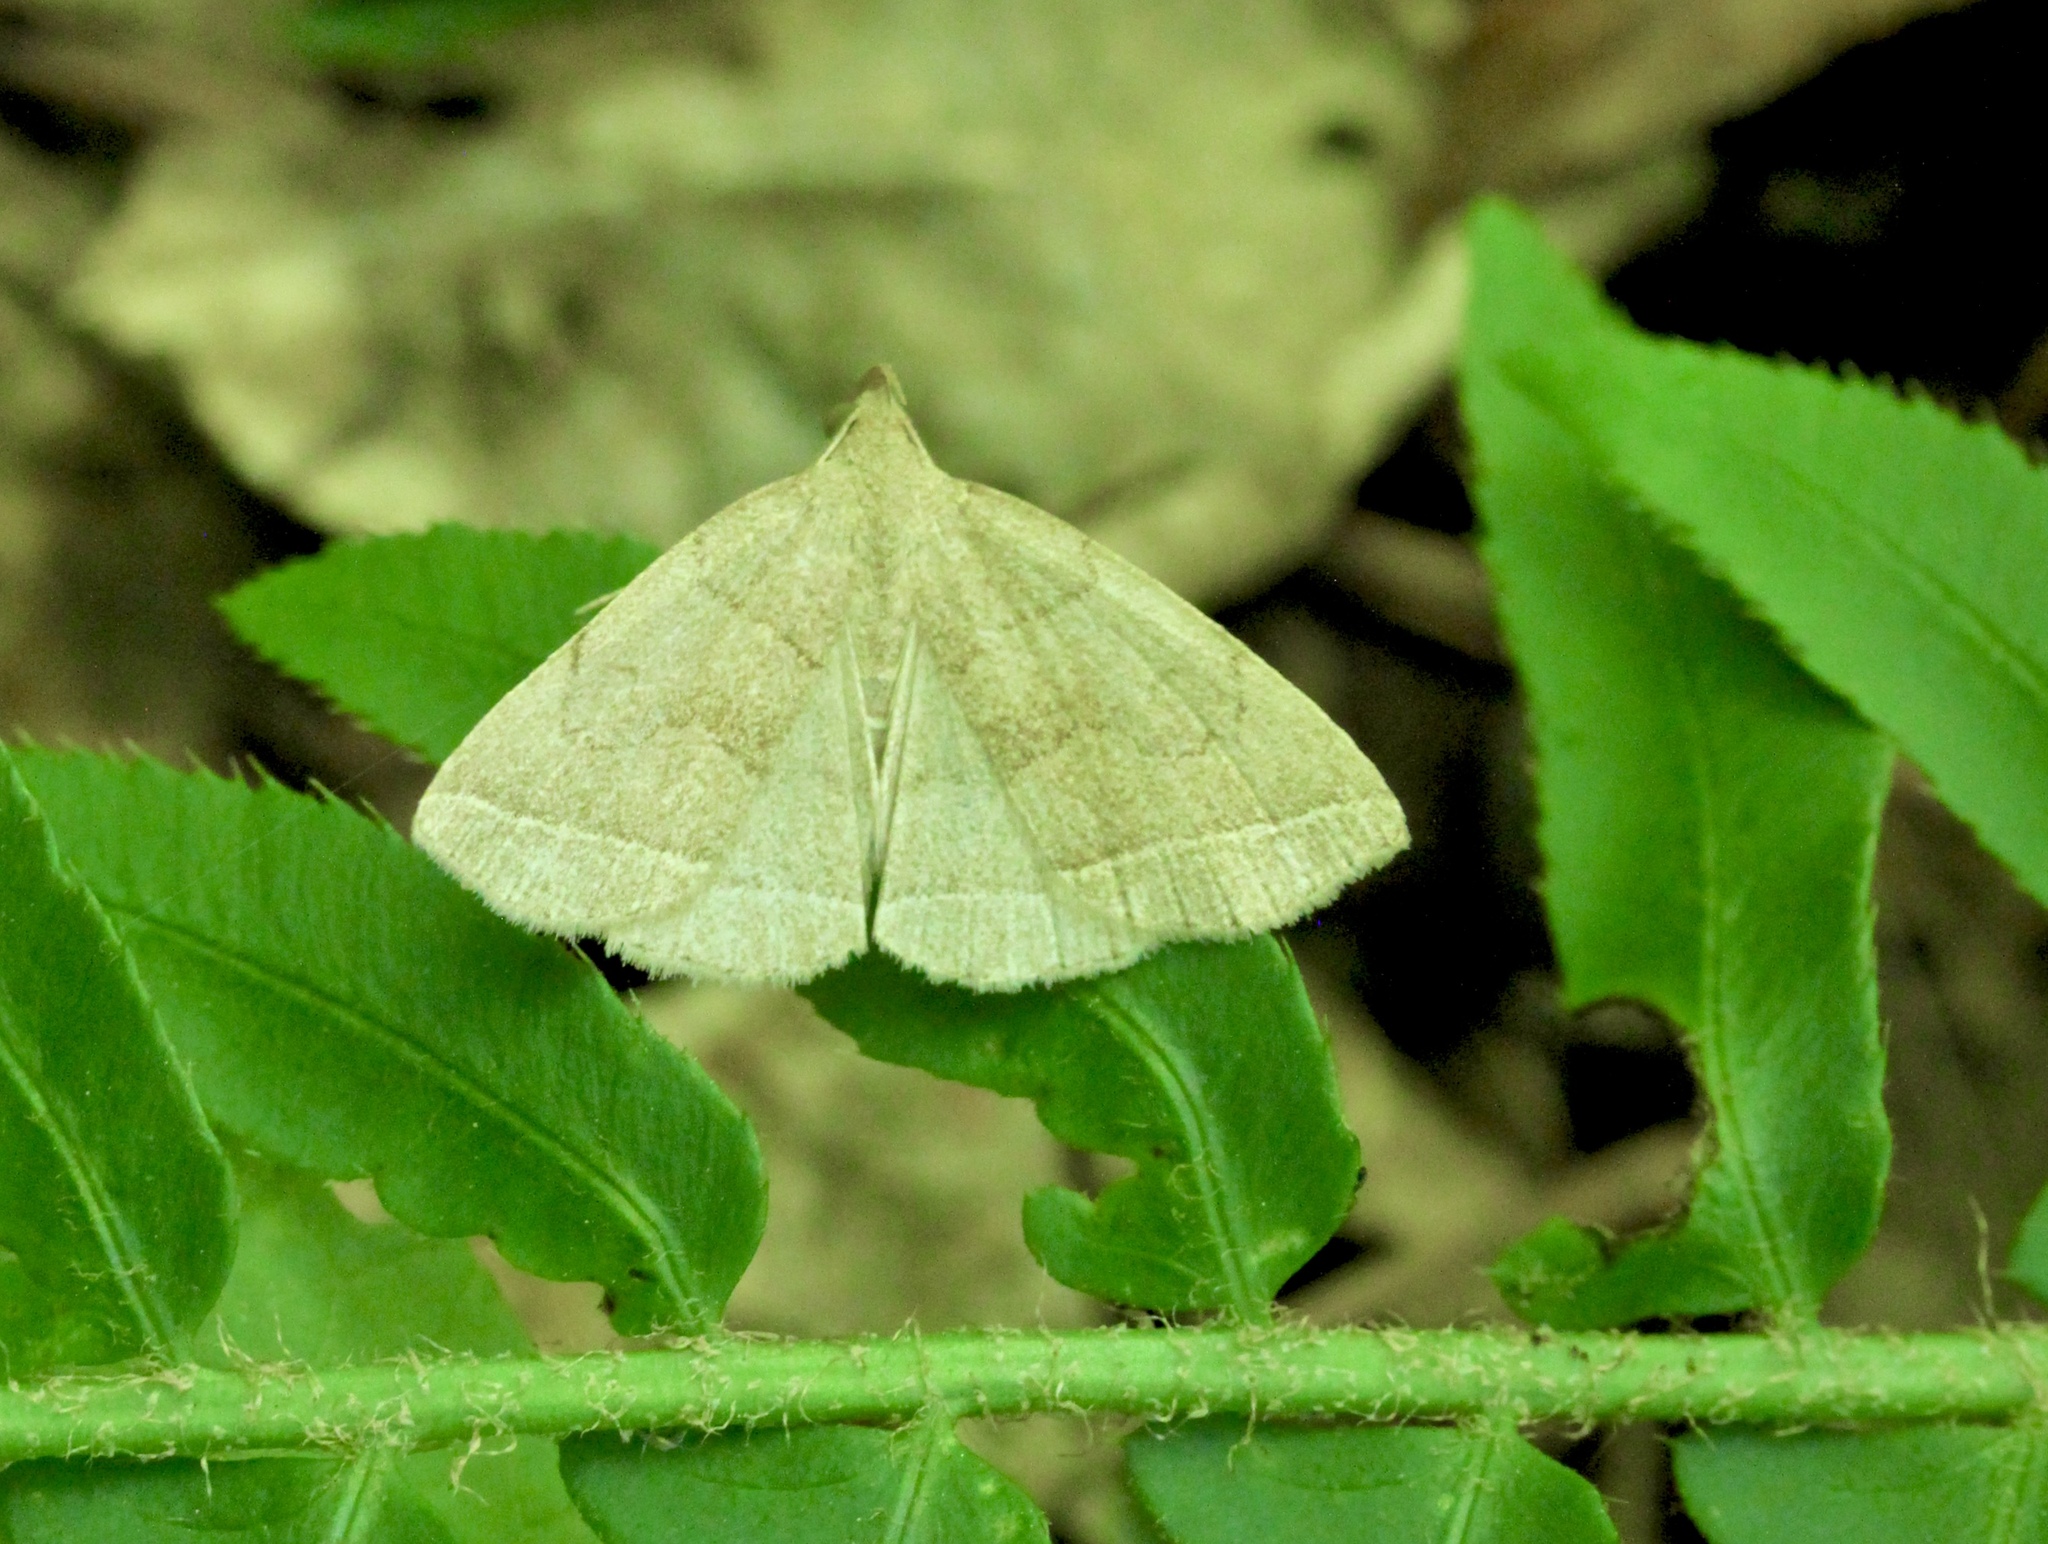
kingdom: Animalia
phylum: Arthropoda
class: Insecta
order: Lepidoptera
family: Erebidae
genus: Zanclognatha
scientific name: Zanclognatha cruralis
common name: Early fan-foot
